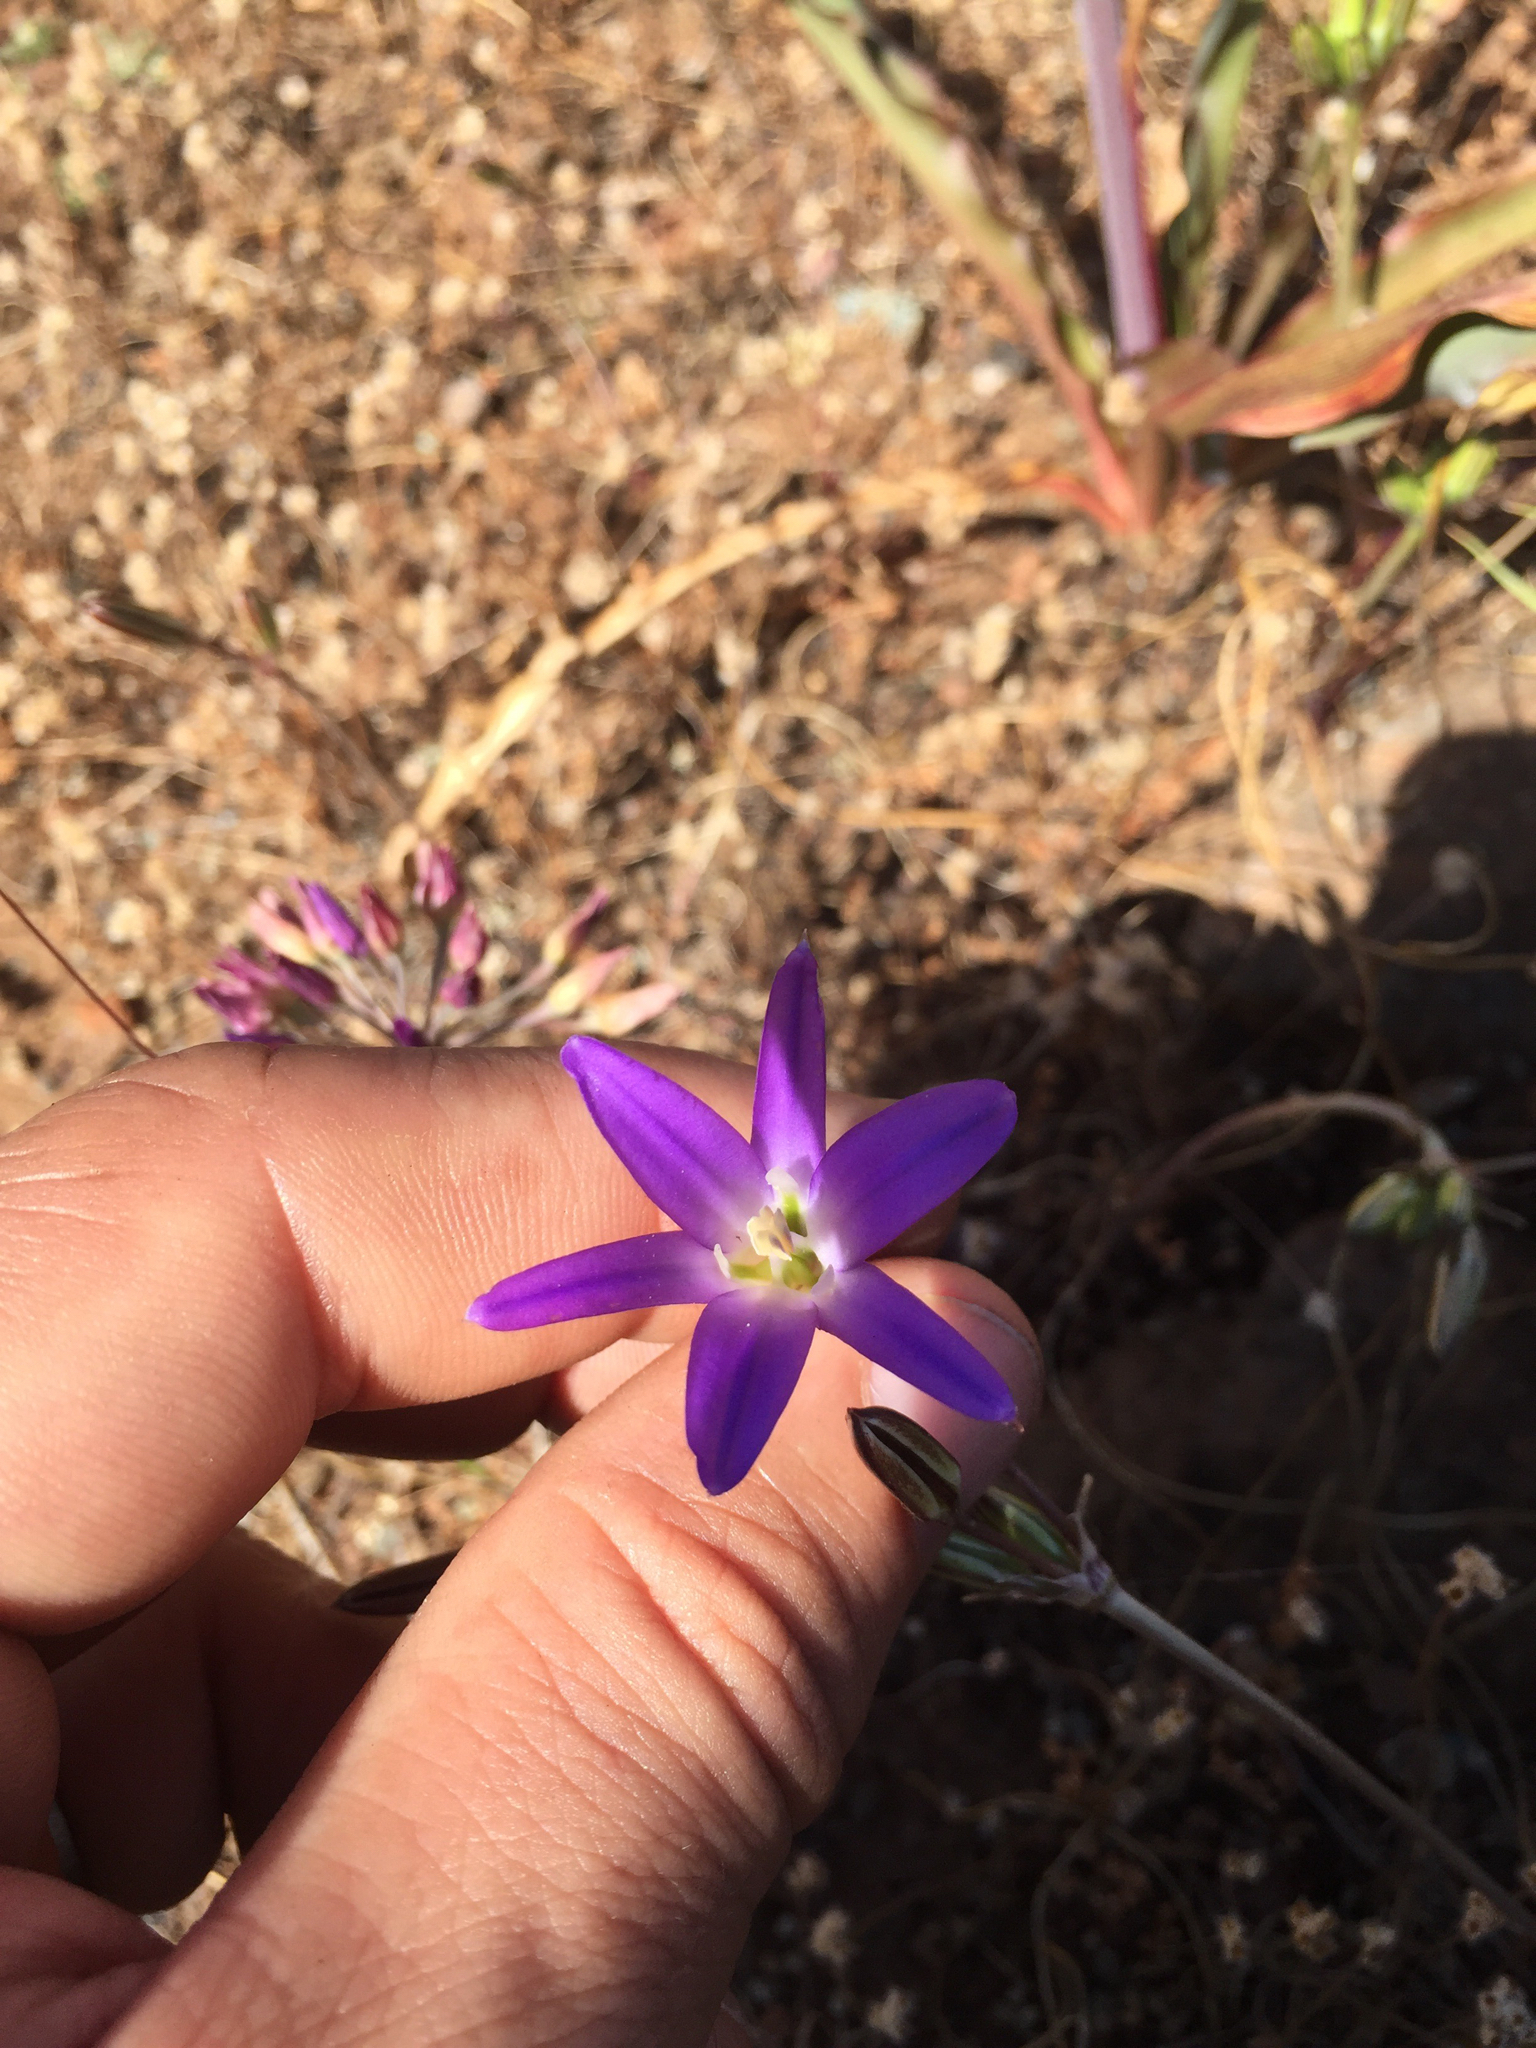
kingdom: Plantae
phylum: Tracheophyta
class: Liliopsida
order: Asparagales
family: Asparagaceae
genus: Brodiaea
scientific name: Brodiaea elegans
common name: Elegant cluster-lily
